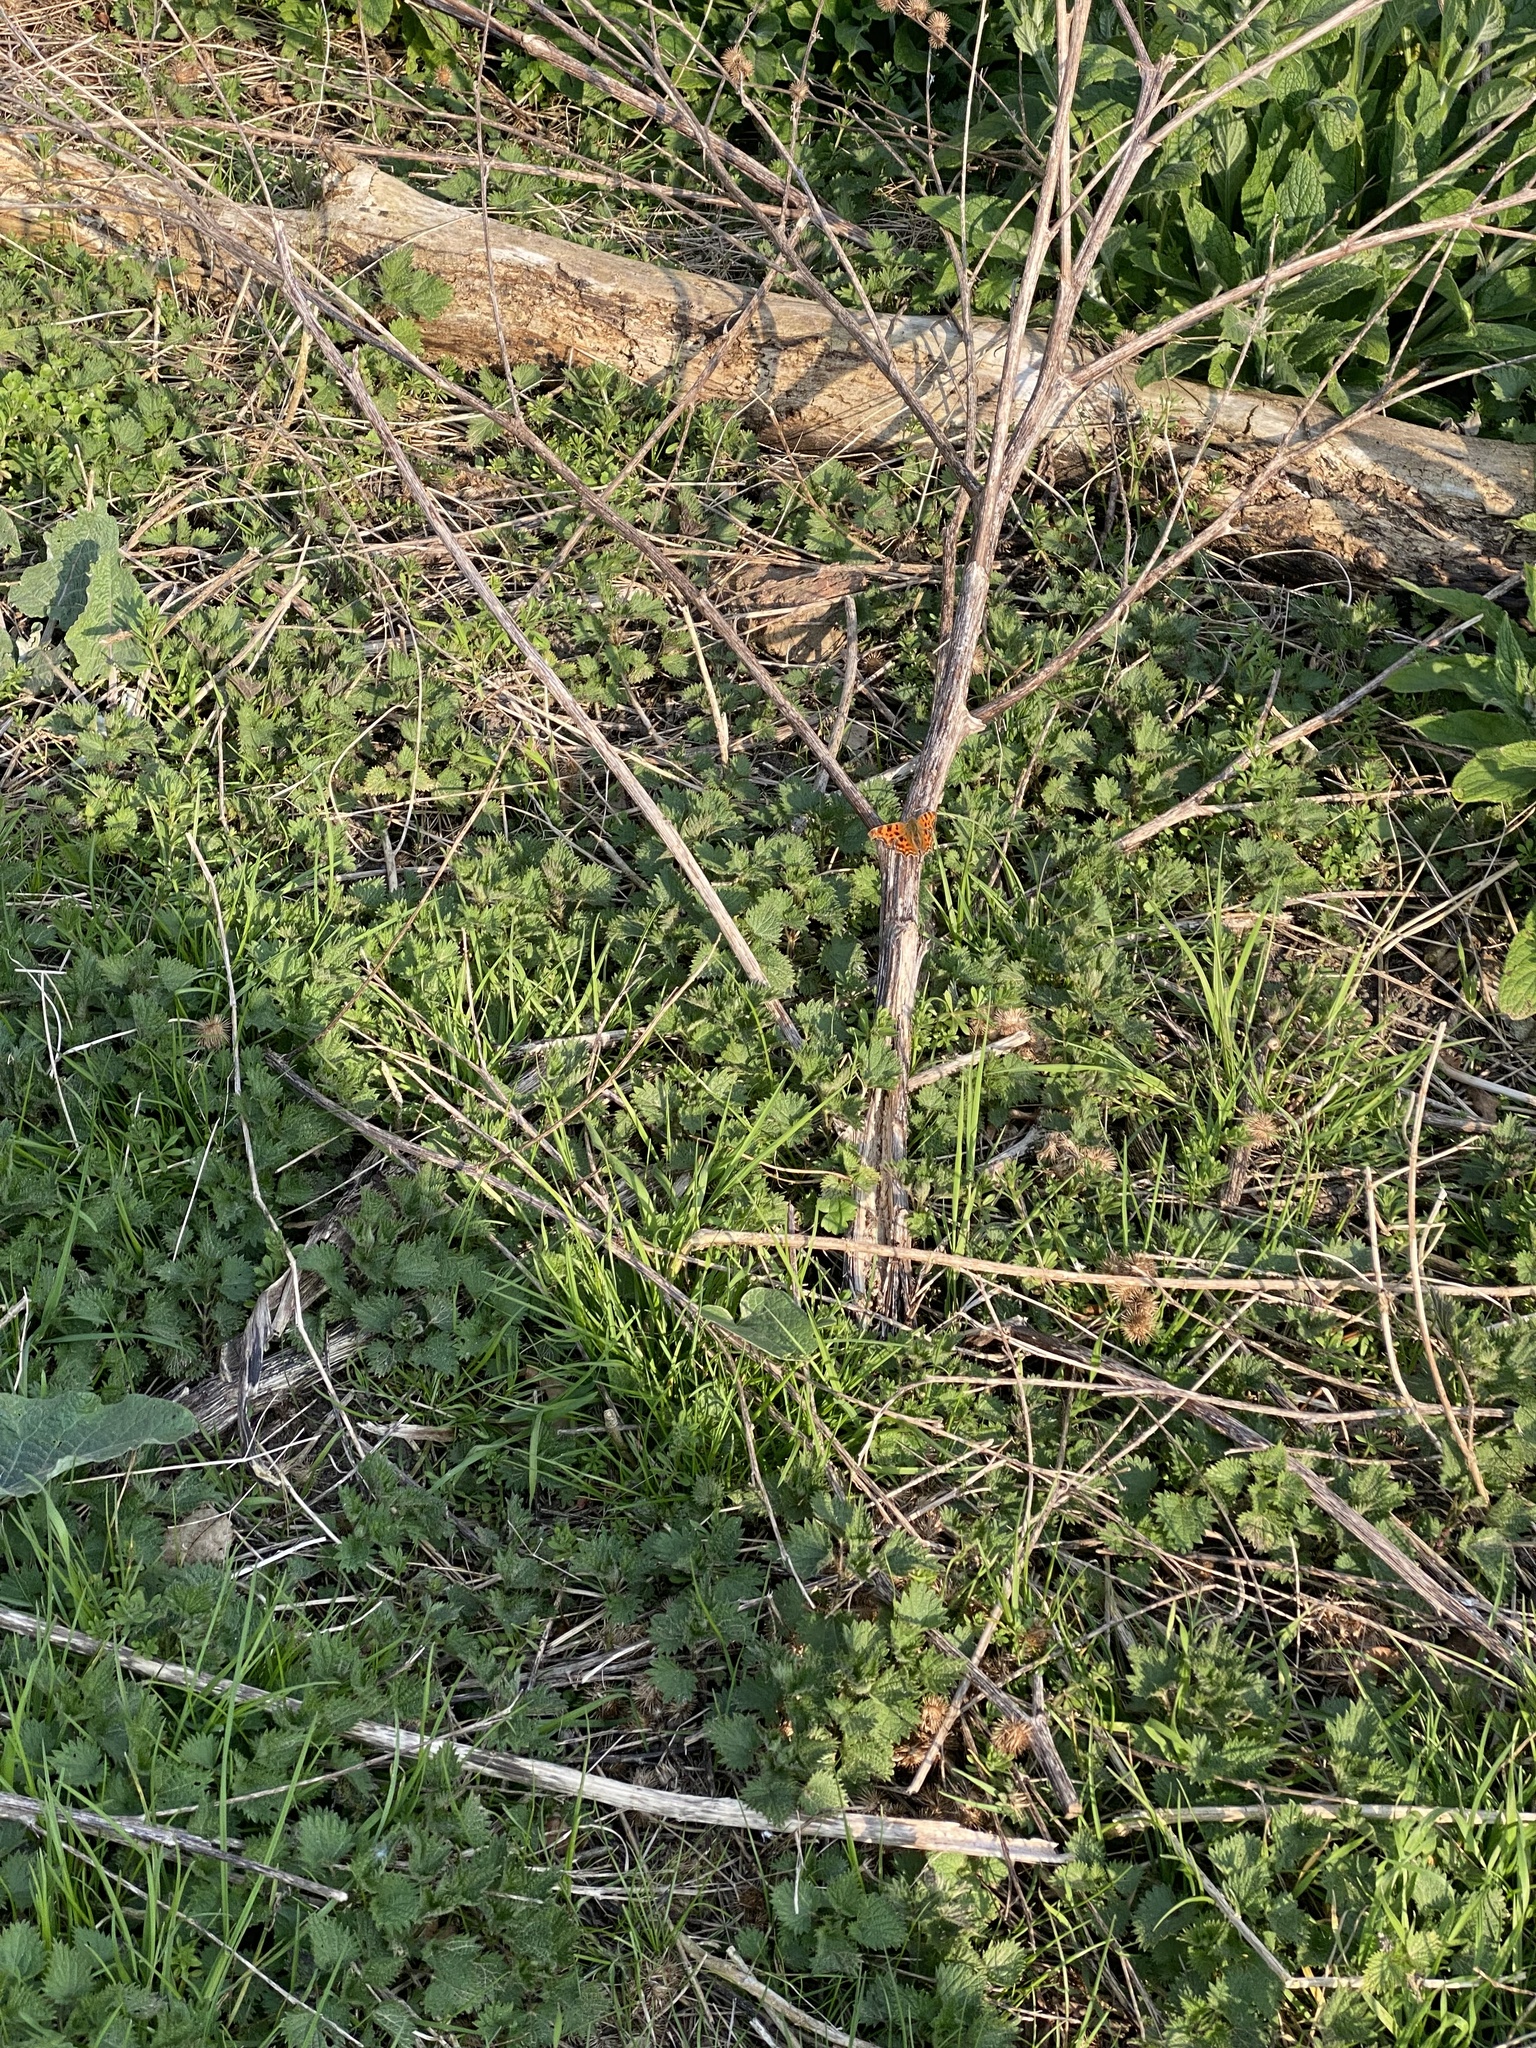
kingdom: Animalia
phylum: Arthropoda
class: Insecta
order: Lepidoptera
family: Nymphalidae
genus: Polygonia
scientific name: Polygonia c-album
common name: Comma
